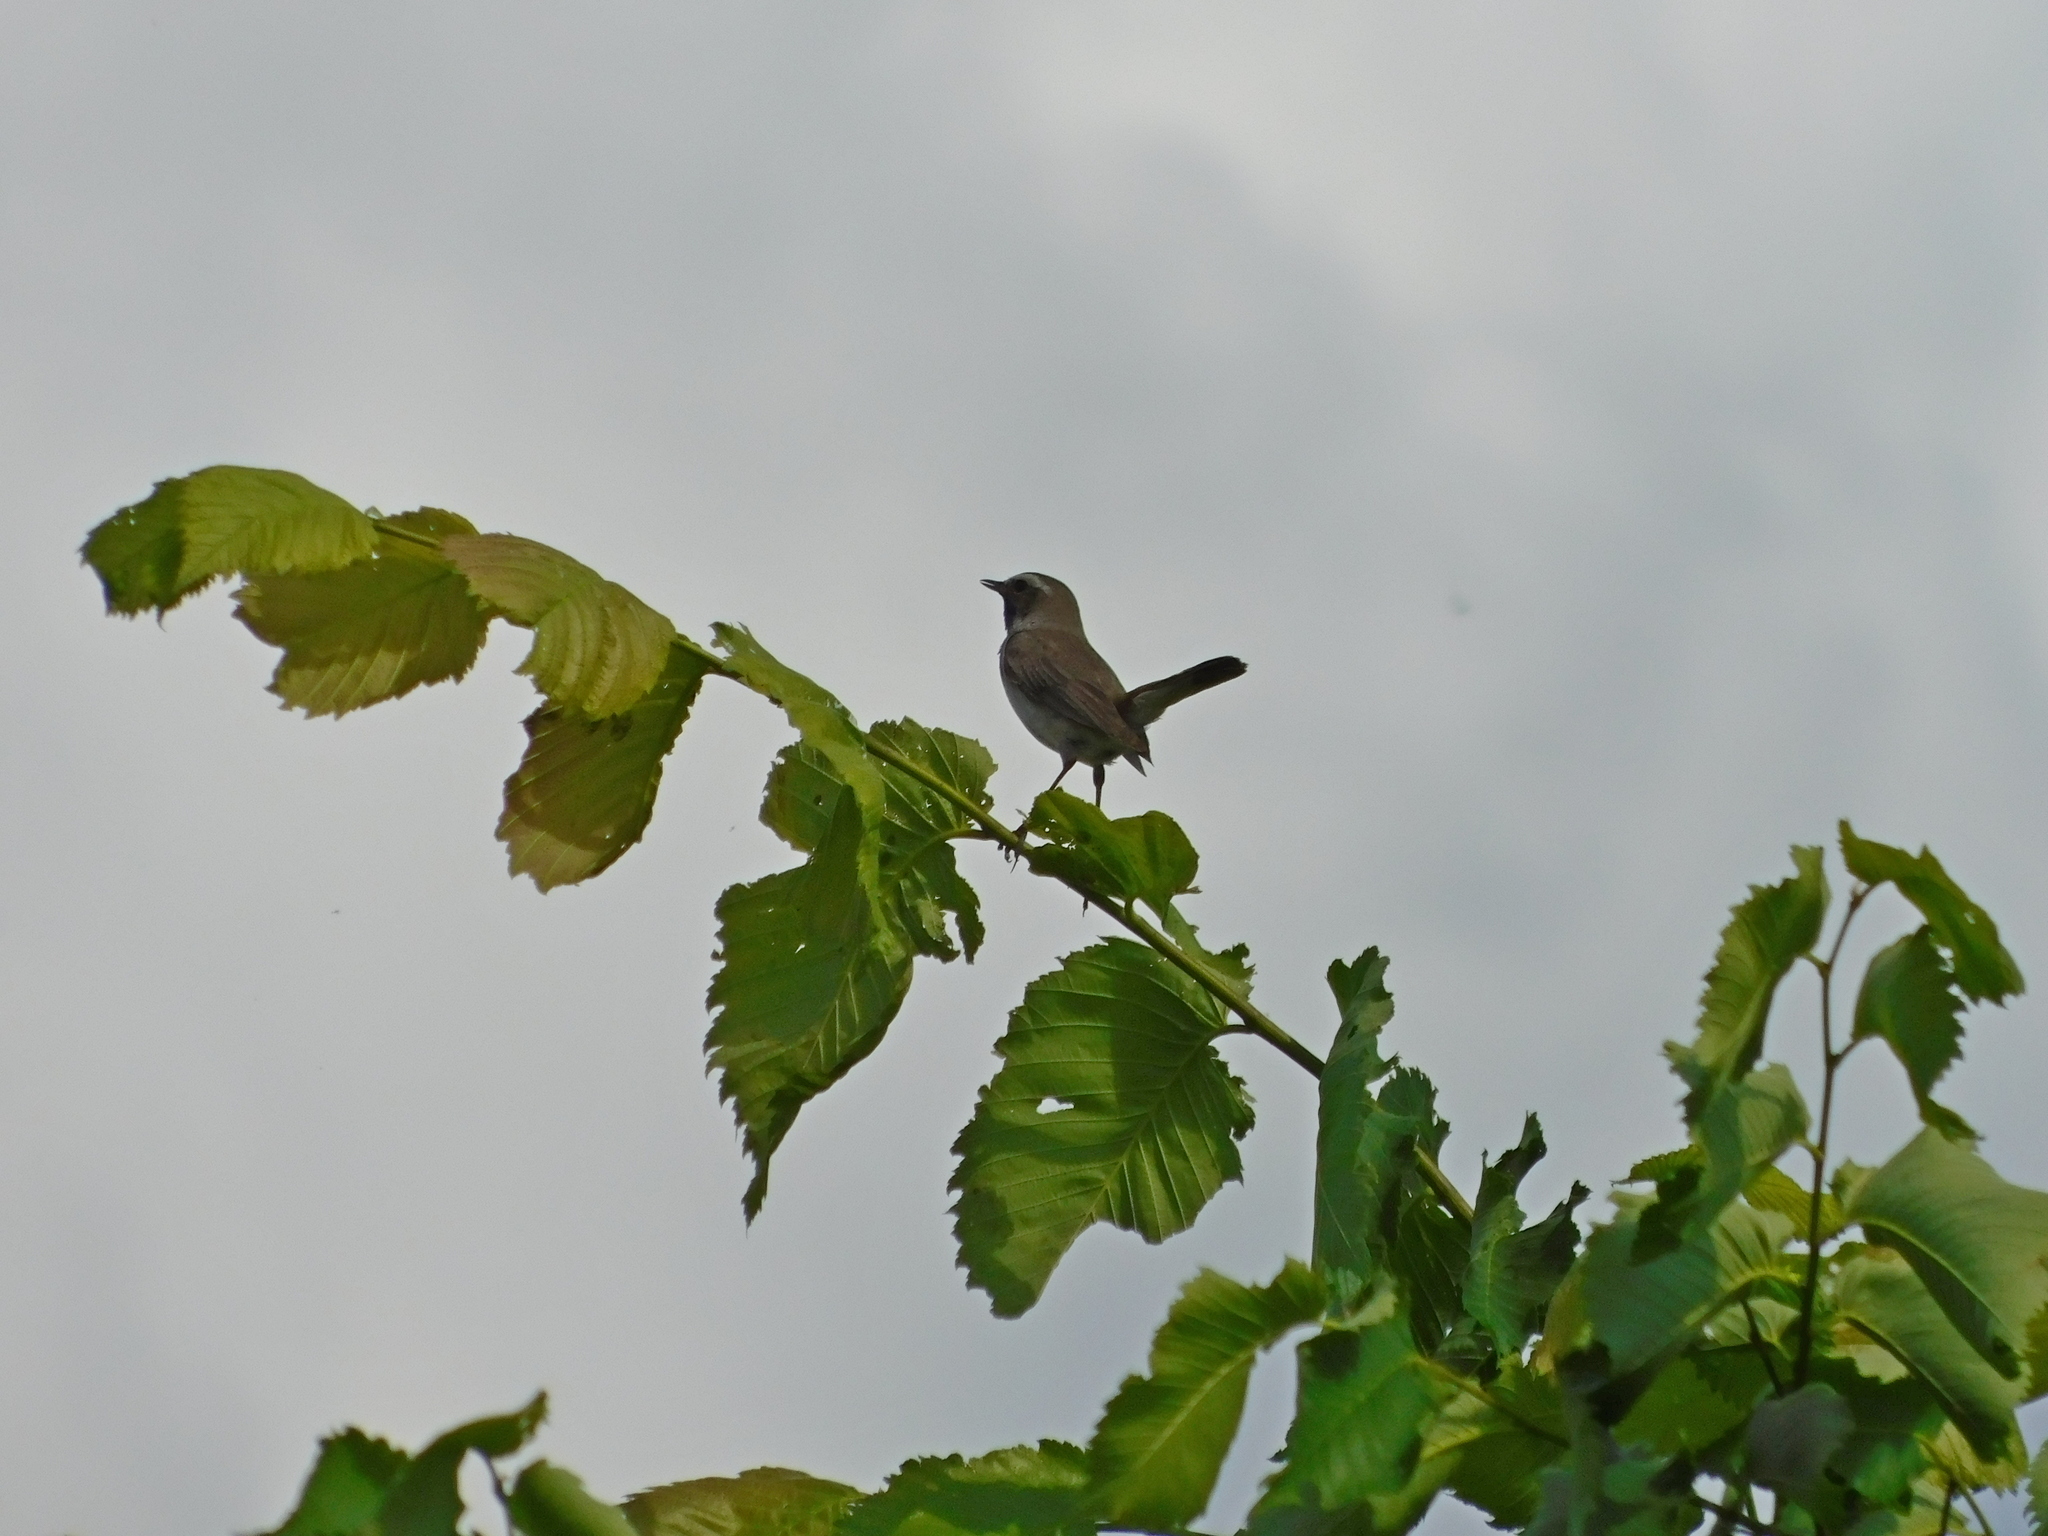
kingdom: Animalia
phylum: Chordata
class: Aves
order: Passeriformes
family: Muscicapidae
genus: Luscinia
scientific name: Luscinia svecica
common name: Bluethroat
